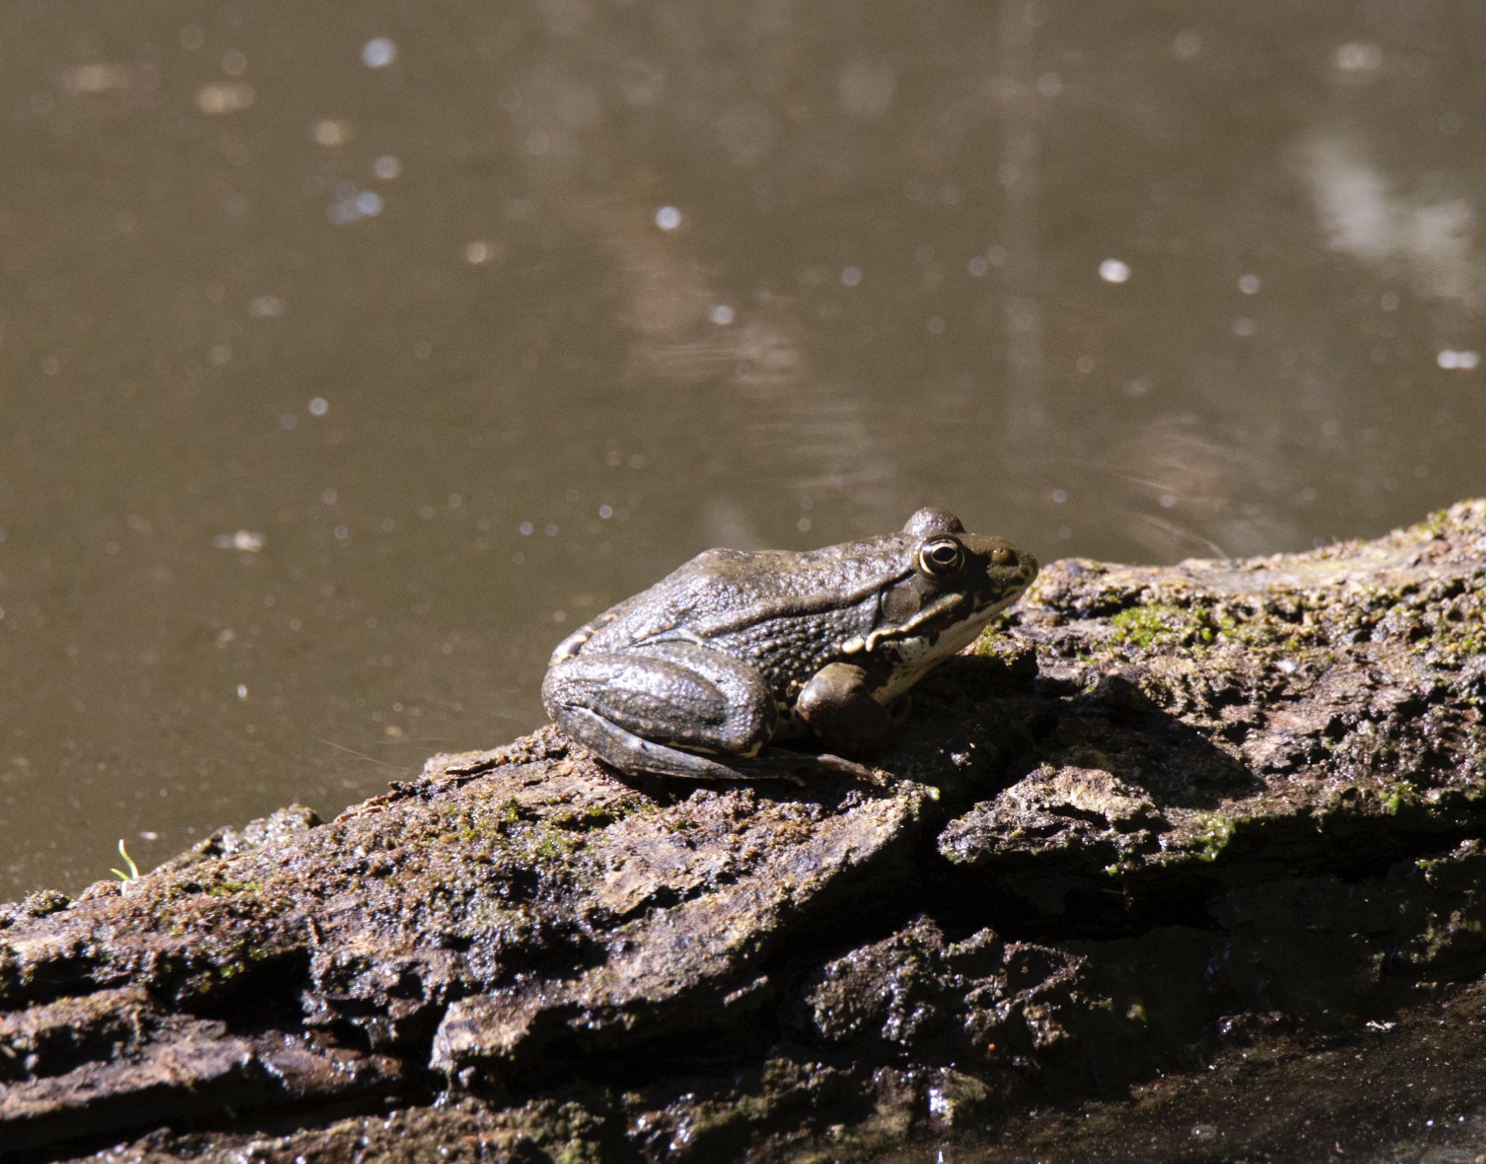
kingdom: Animalia
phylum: Chordata
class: Amphibia
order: Anura
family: Ranidae
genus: Pelophylax
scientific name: Pelophylax
